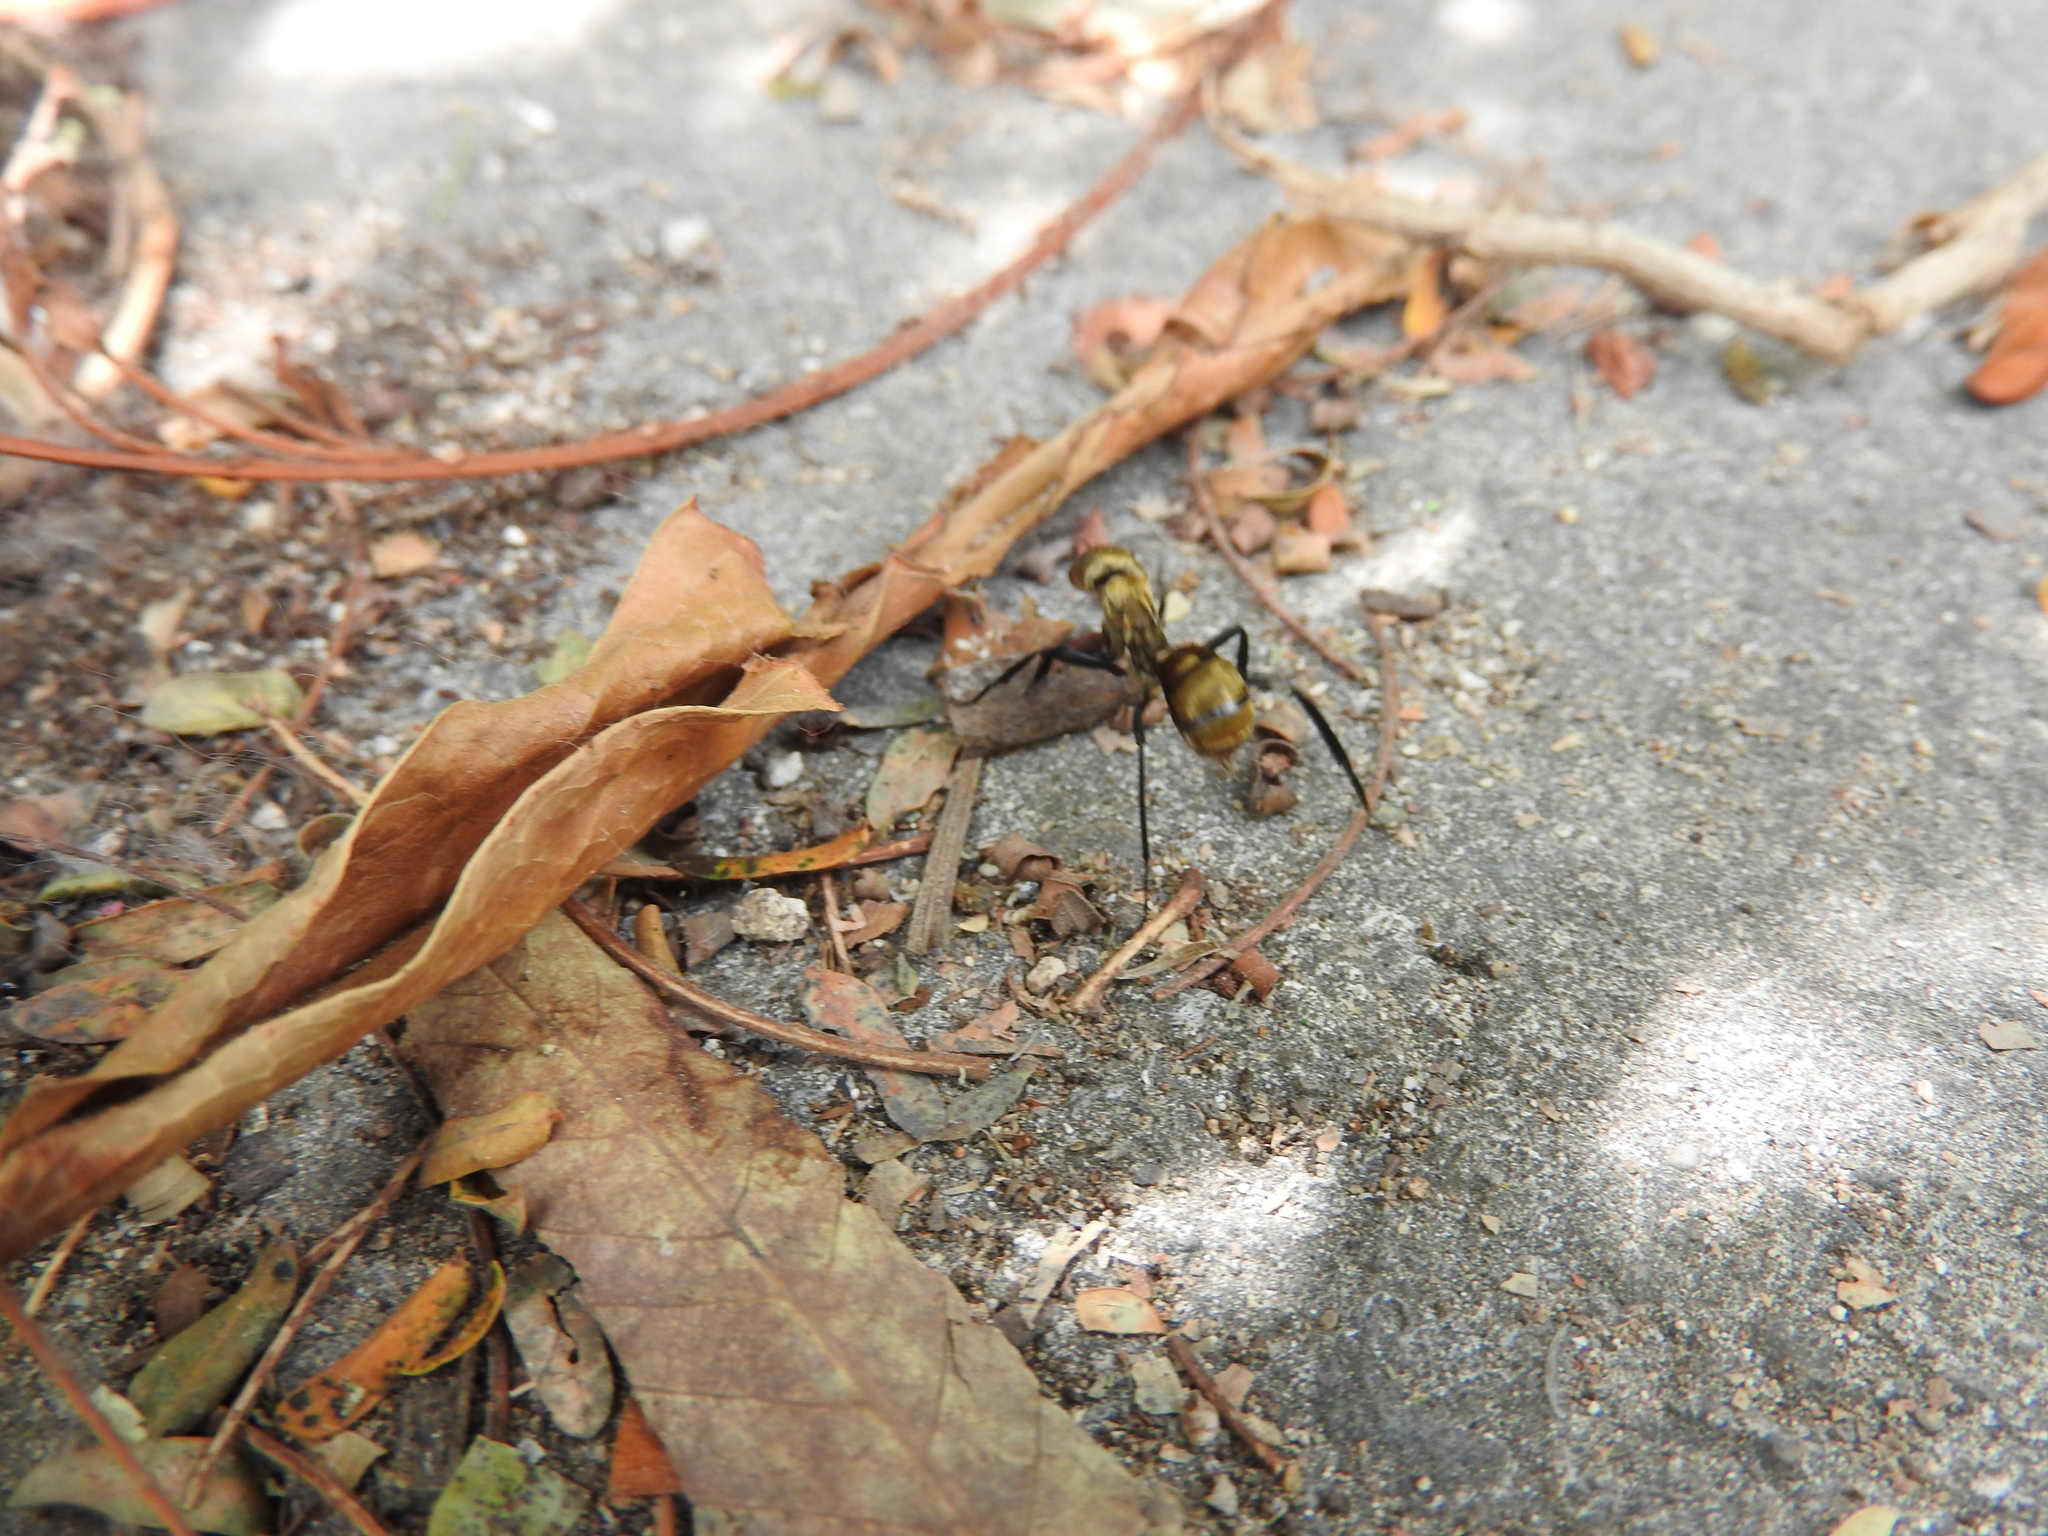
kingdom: Animalia
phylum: Arthropoda
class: Insecta
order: Hymenoptera
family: Formicidae
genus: Camponotus
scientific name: Camponotus sericeiventris
